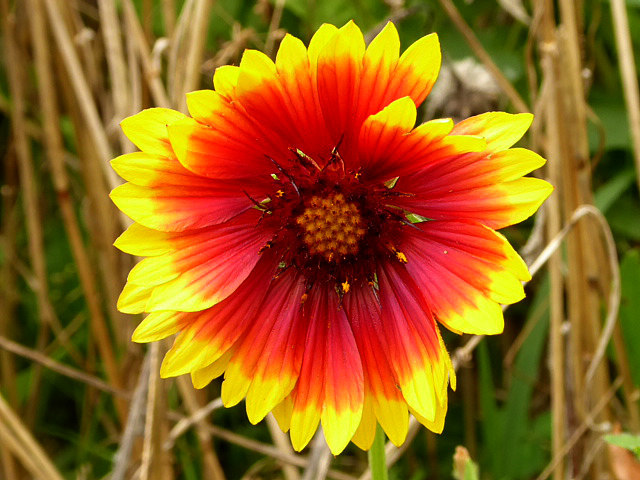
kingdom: Plantae
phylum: Tracheophyta
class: Magnoliopsida
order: Asterales
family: Asteraceae
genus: Gaillardia
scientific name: Gaillardia pulchella
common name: Firewheel
